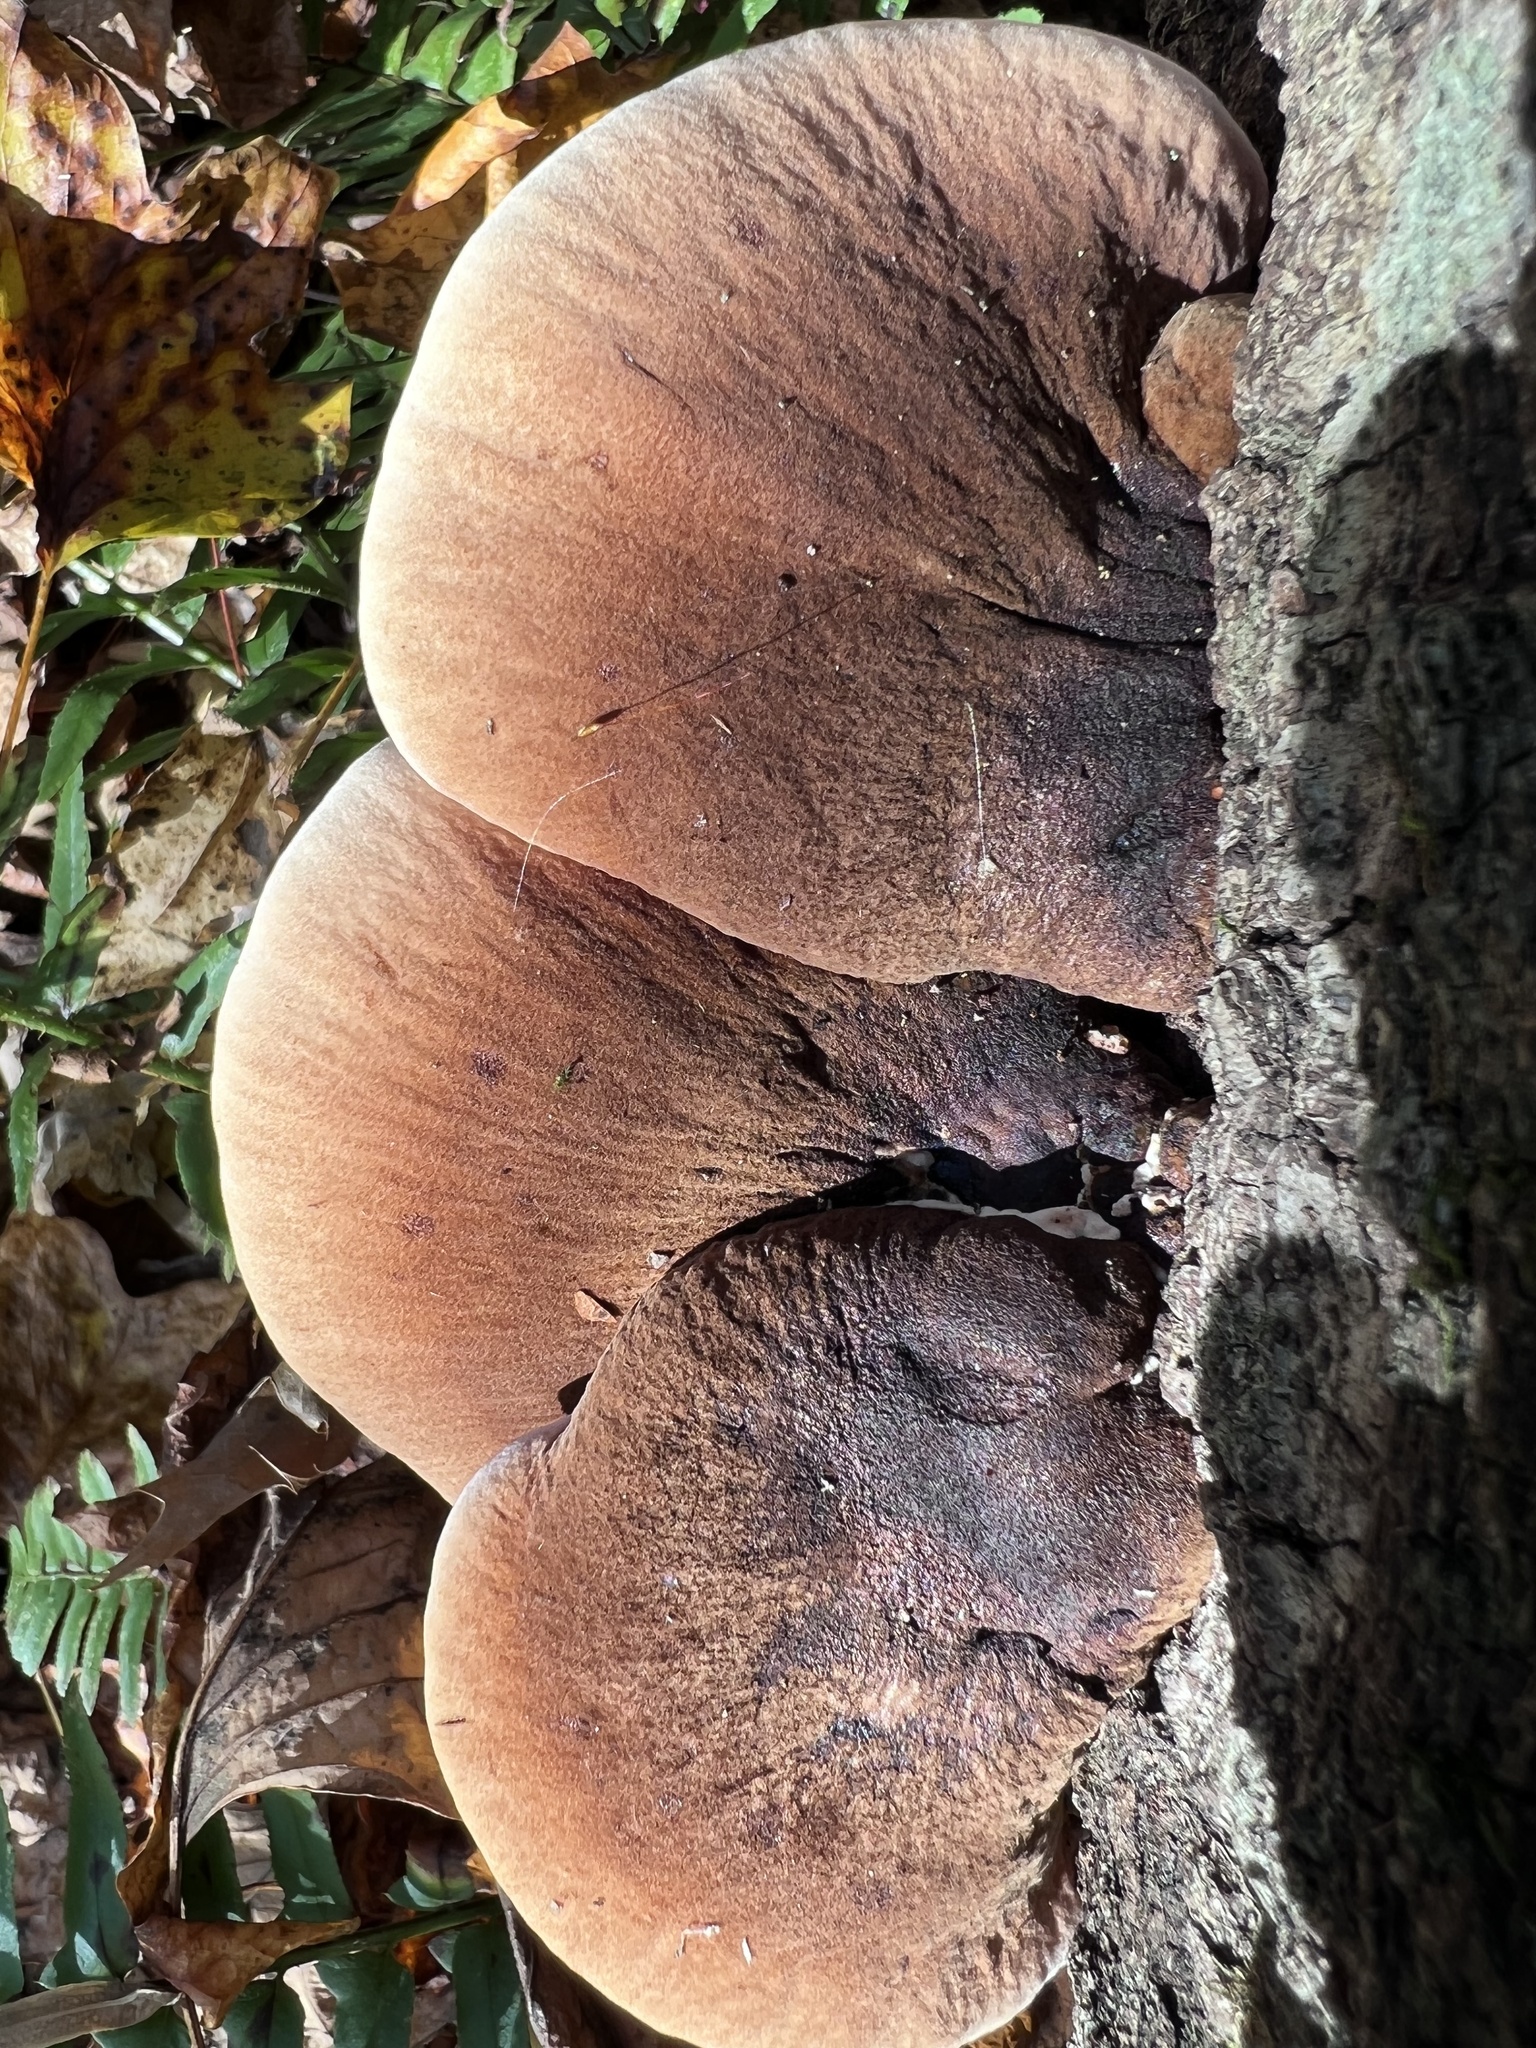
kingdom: Fungi
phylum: Basidiomycota
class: Agaricomycetes
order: Polyporales
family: Ischnodermataceae
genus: Ischnoderma
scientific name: Ischnoderma resinosum
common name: Resinous polypore
